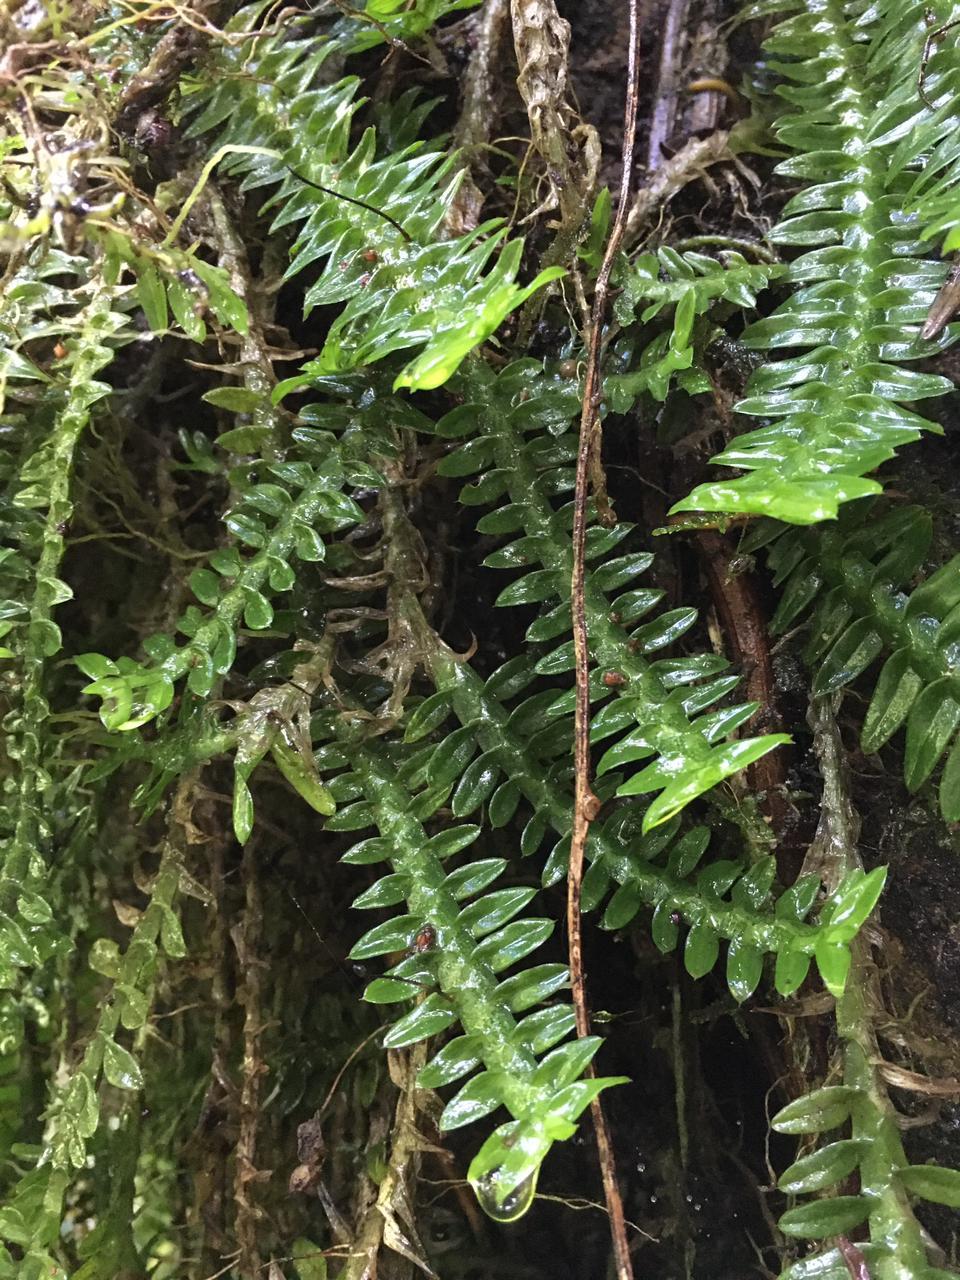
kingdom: Plantae
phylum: Tracheophyta
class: Liliopsida
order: Asparagales
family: Orchidaceae
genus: Dichaea
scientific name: Dichaea neglecta
